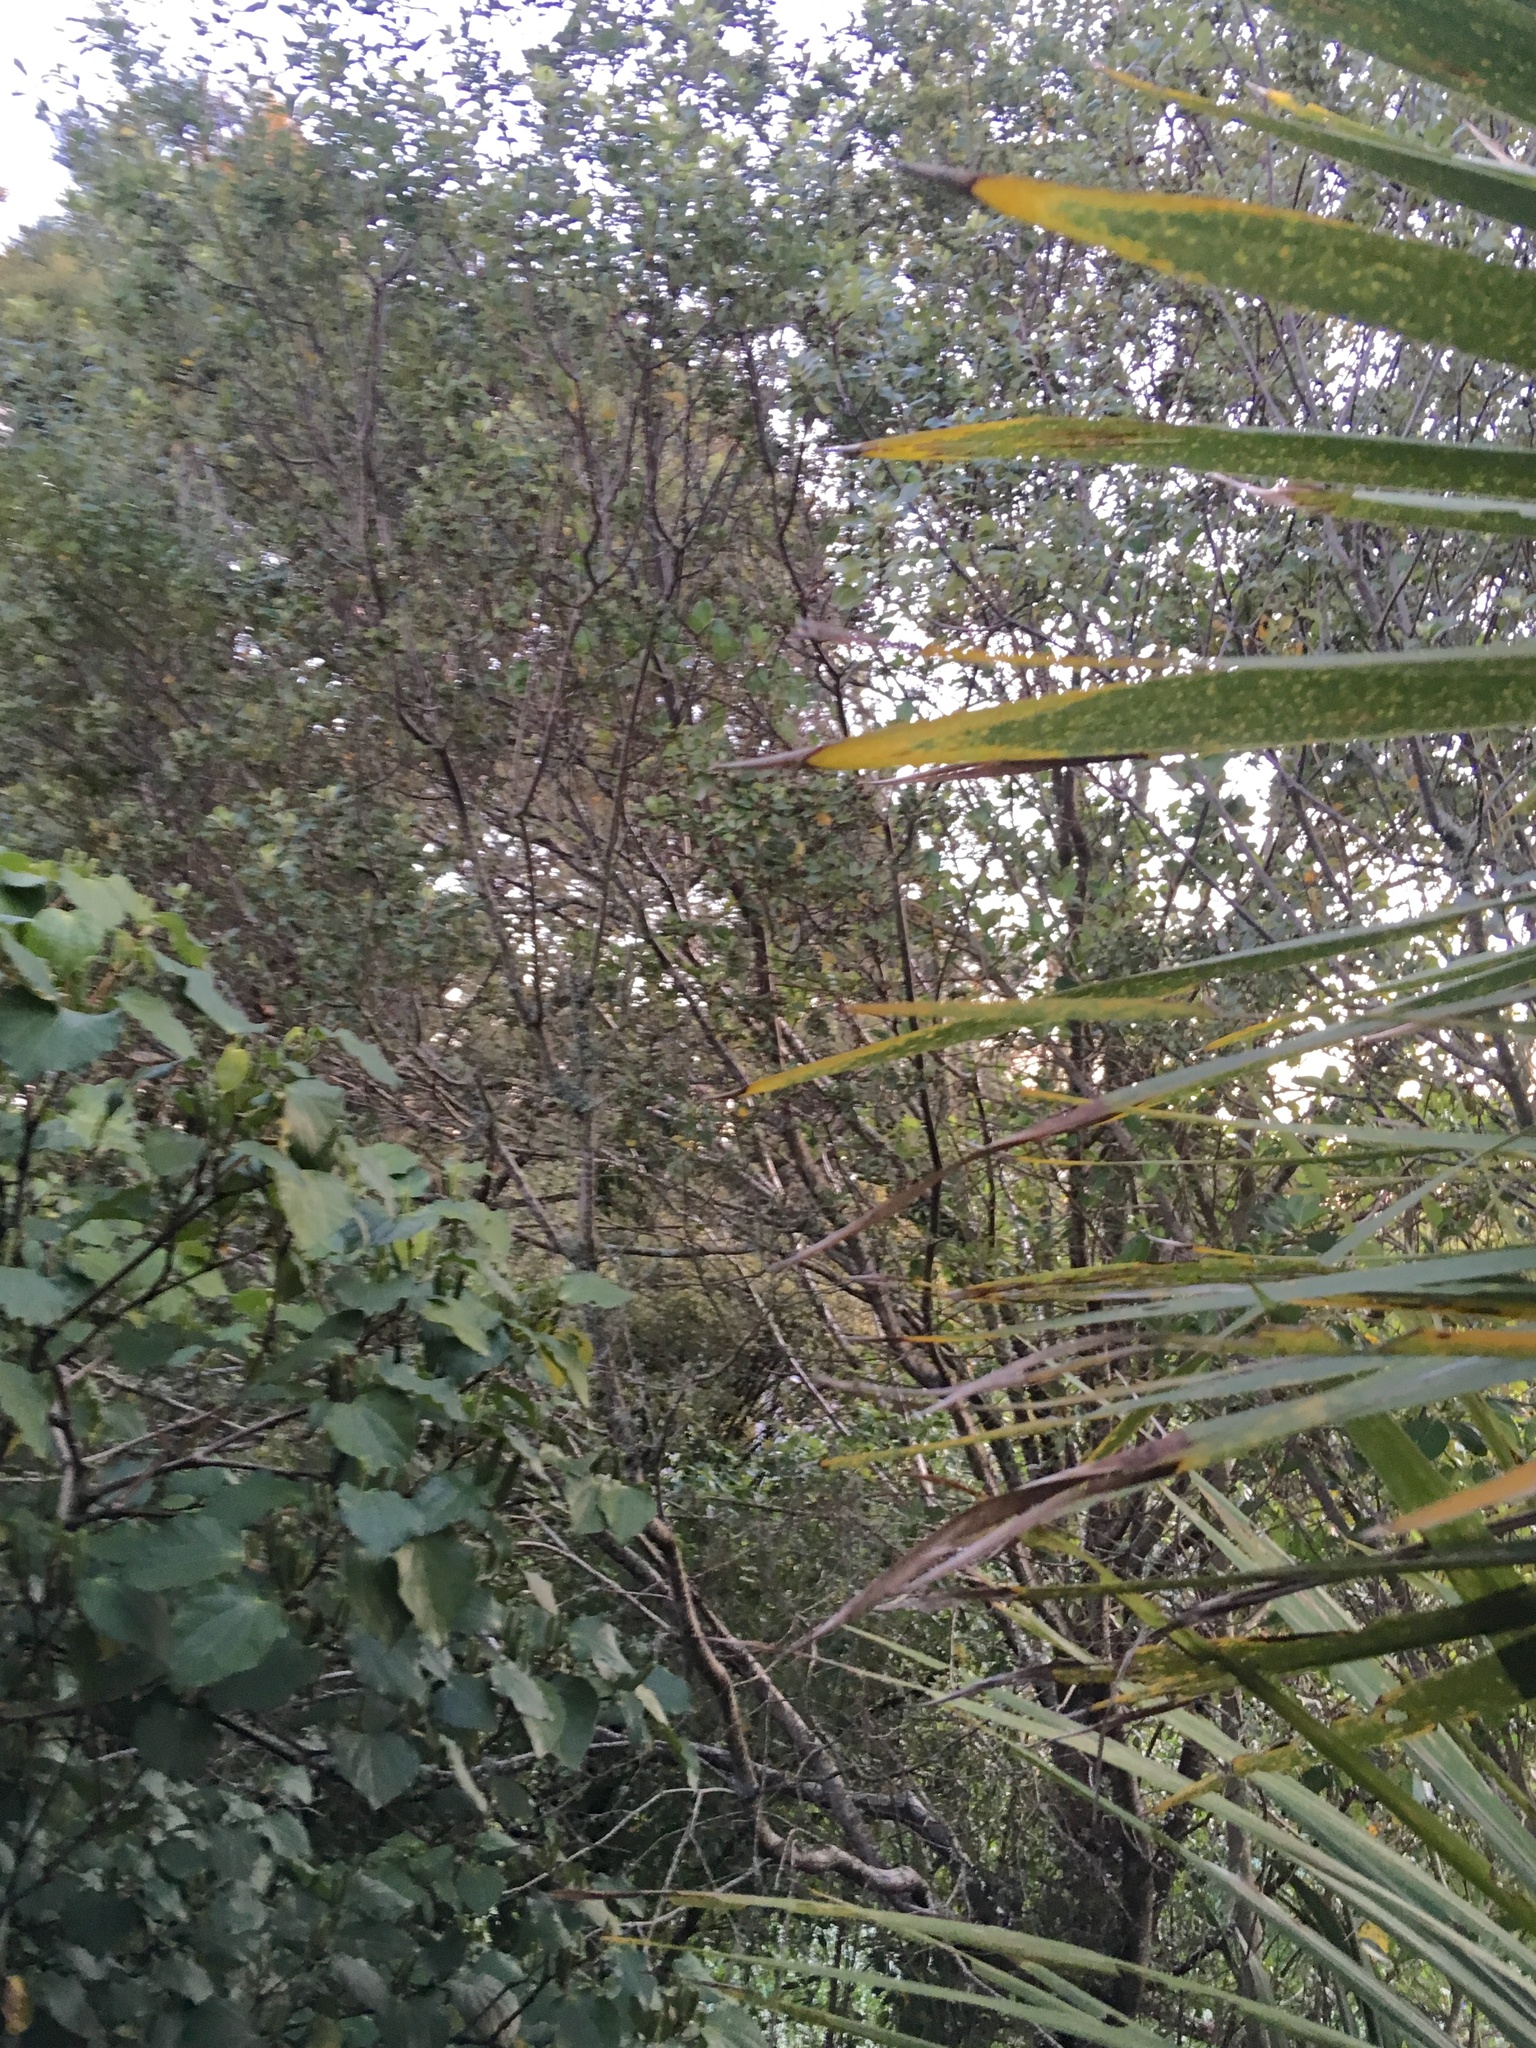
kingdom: Plantae
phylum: Tracheophyta
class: Magnoliopsida
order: Apiales
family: Pittosporaceae
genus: Pittosporum
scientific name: Pittosporum tenuifolium
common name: Kohuhu
